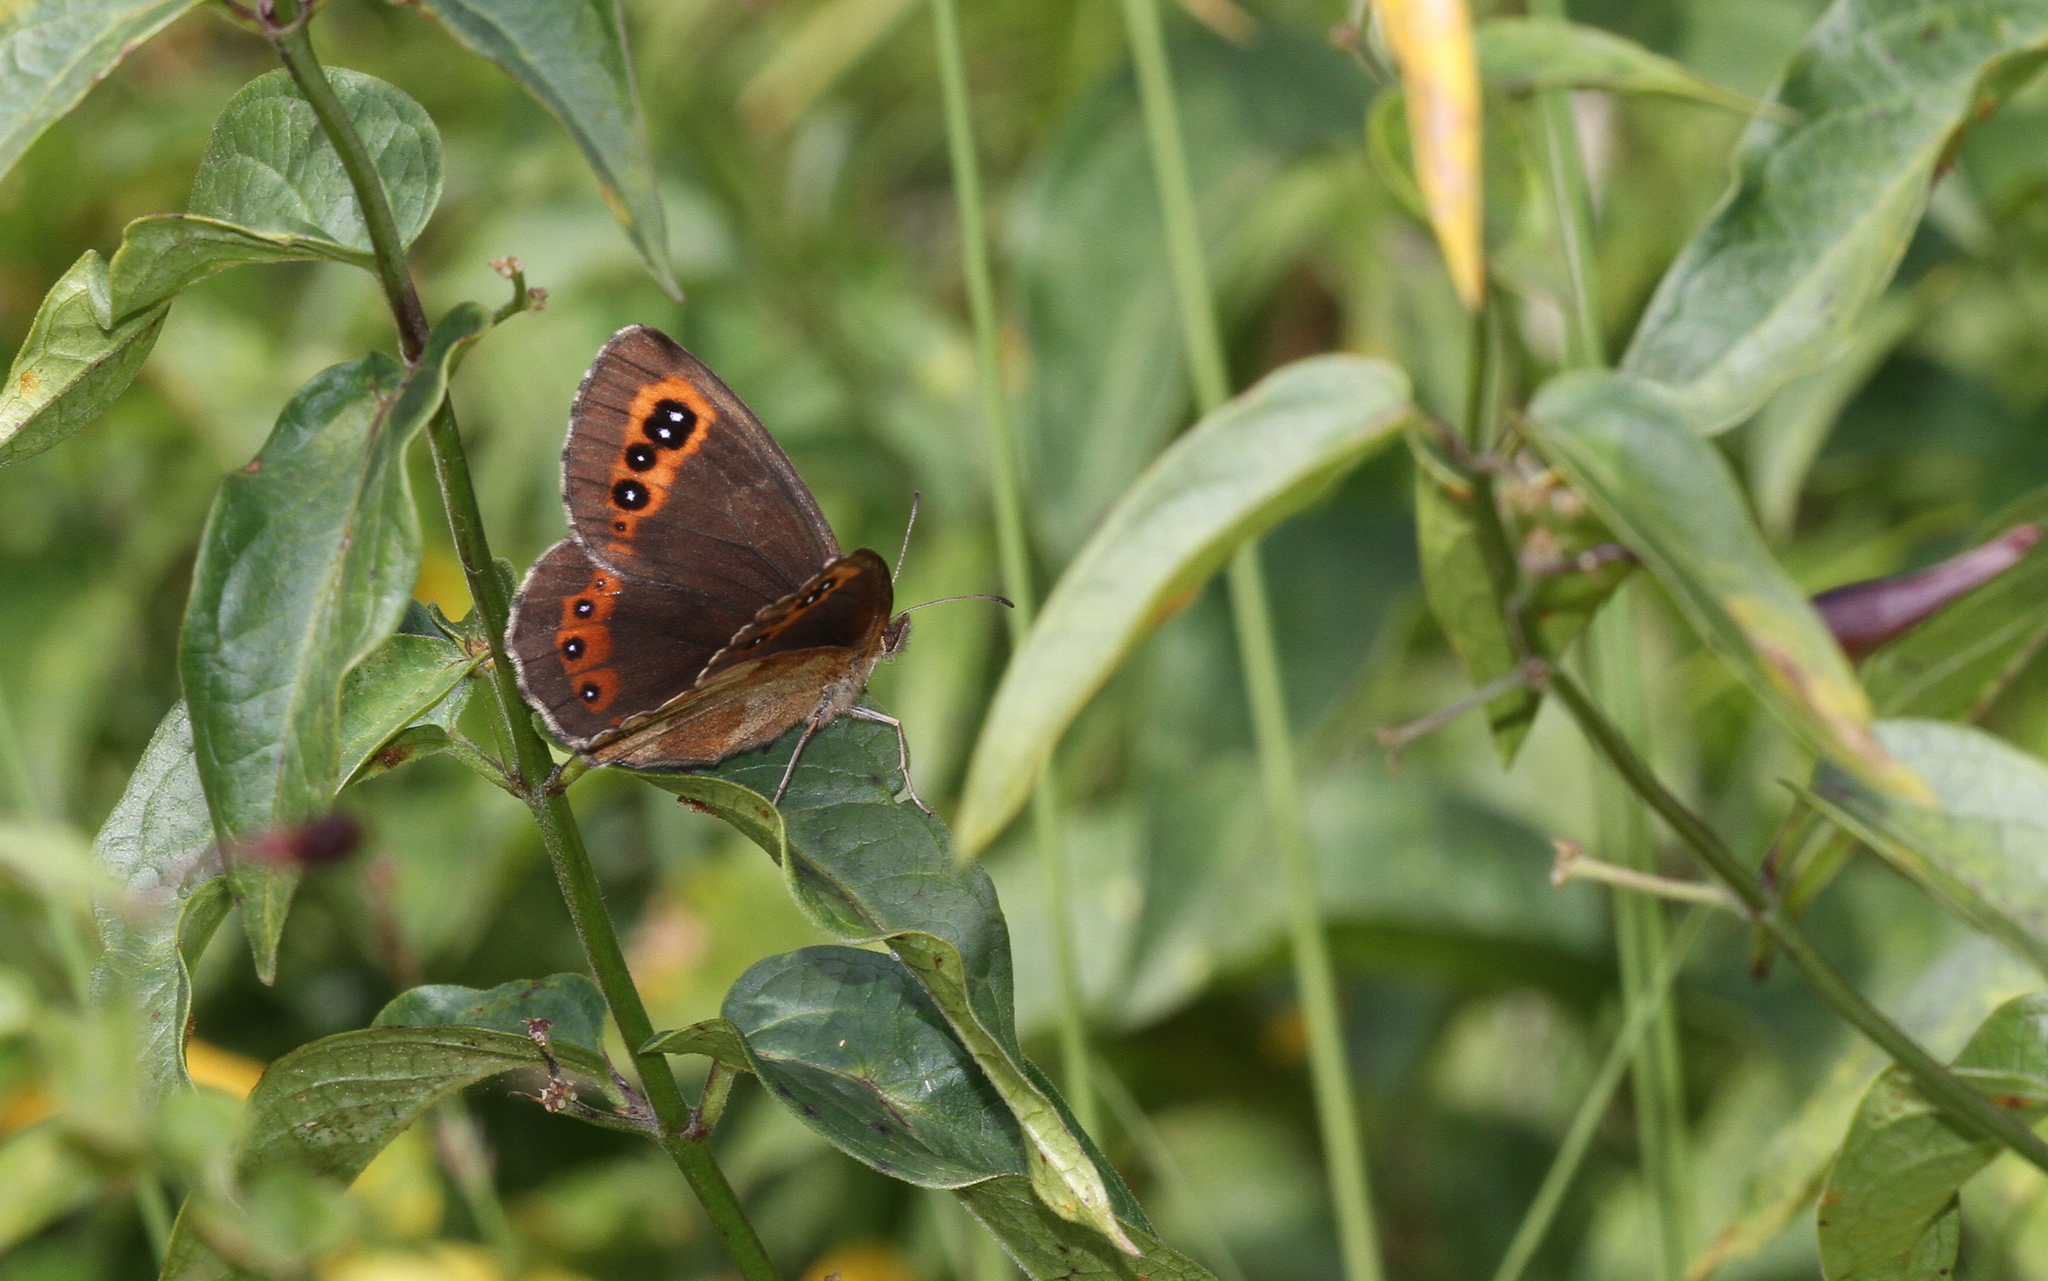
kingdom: Animalia
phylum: Arthropoda
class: Insecta
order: Lepidoptera
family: Nymphalidae
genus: Erebia
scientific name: Erebia aethiops
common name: Scotch argus
